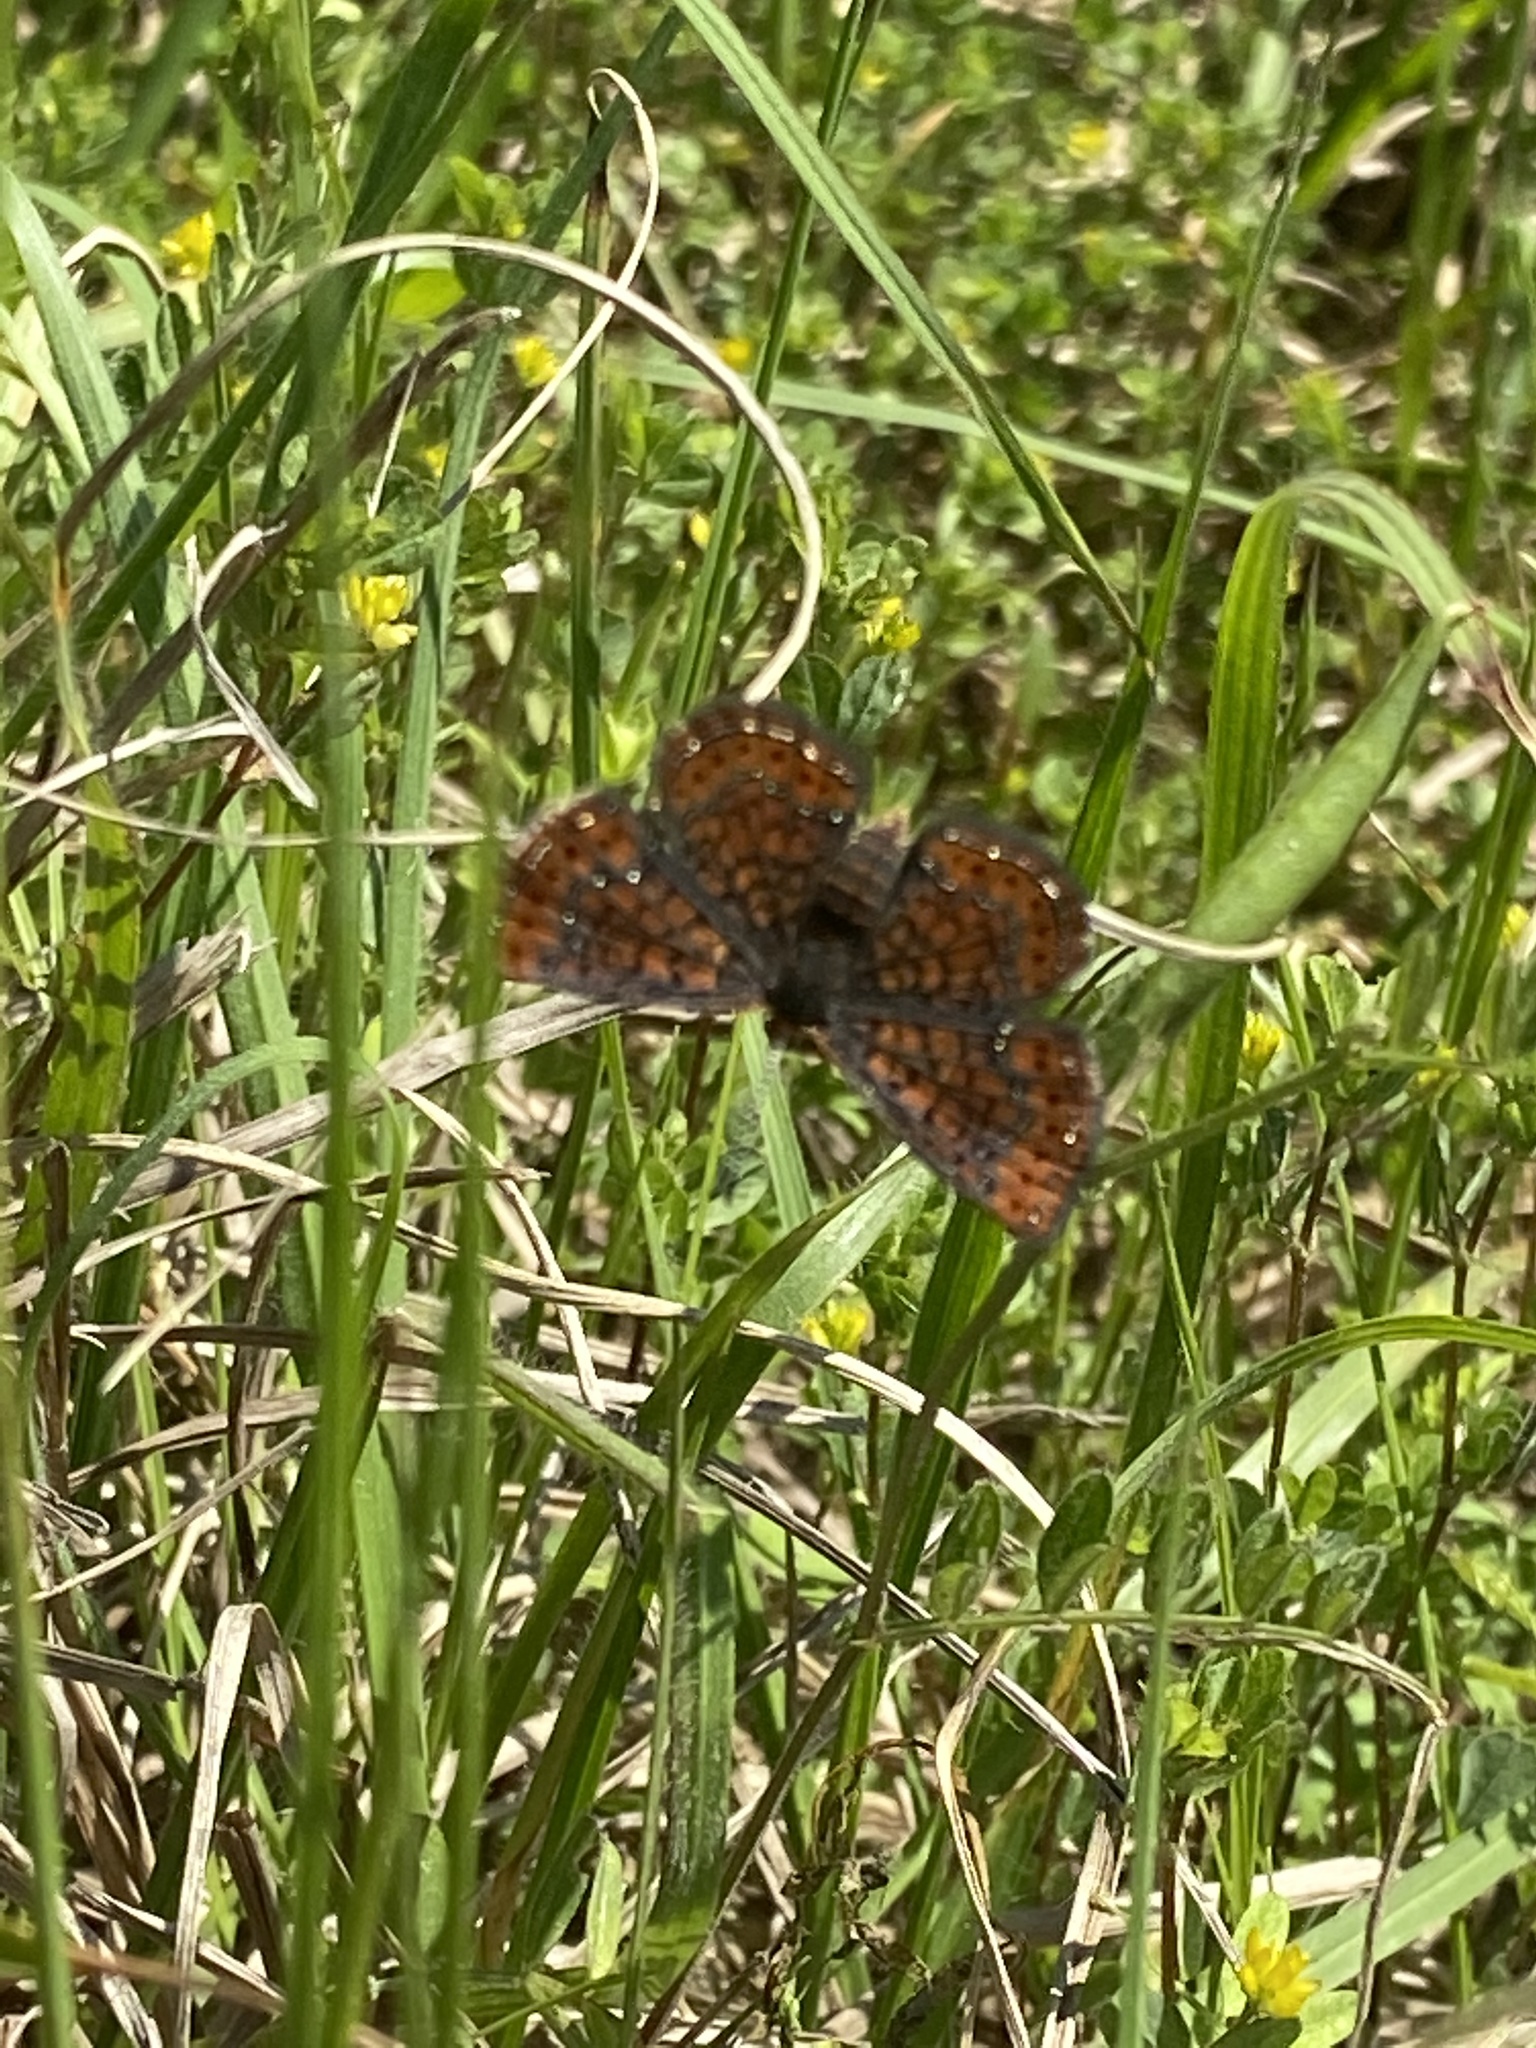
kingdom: Animalia
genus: Calephelis
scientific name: Calephelis virginiensis
